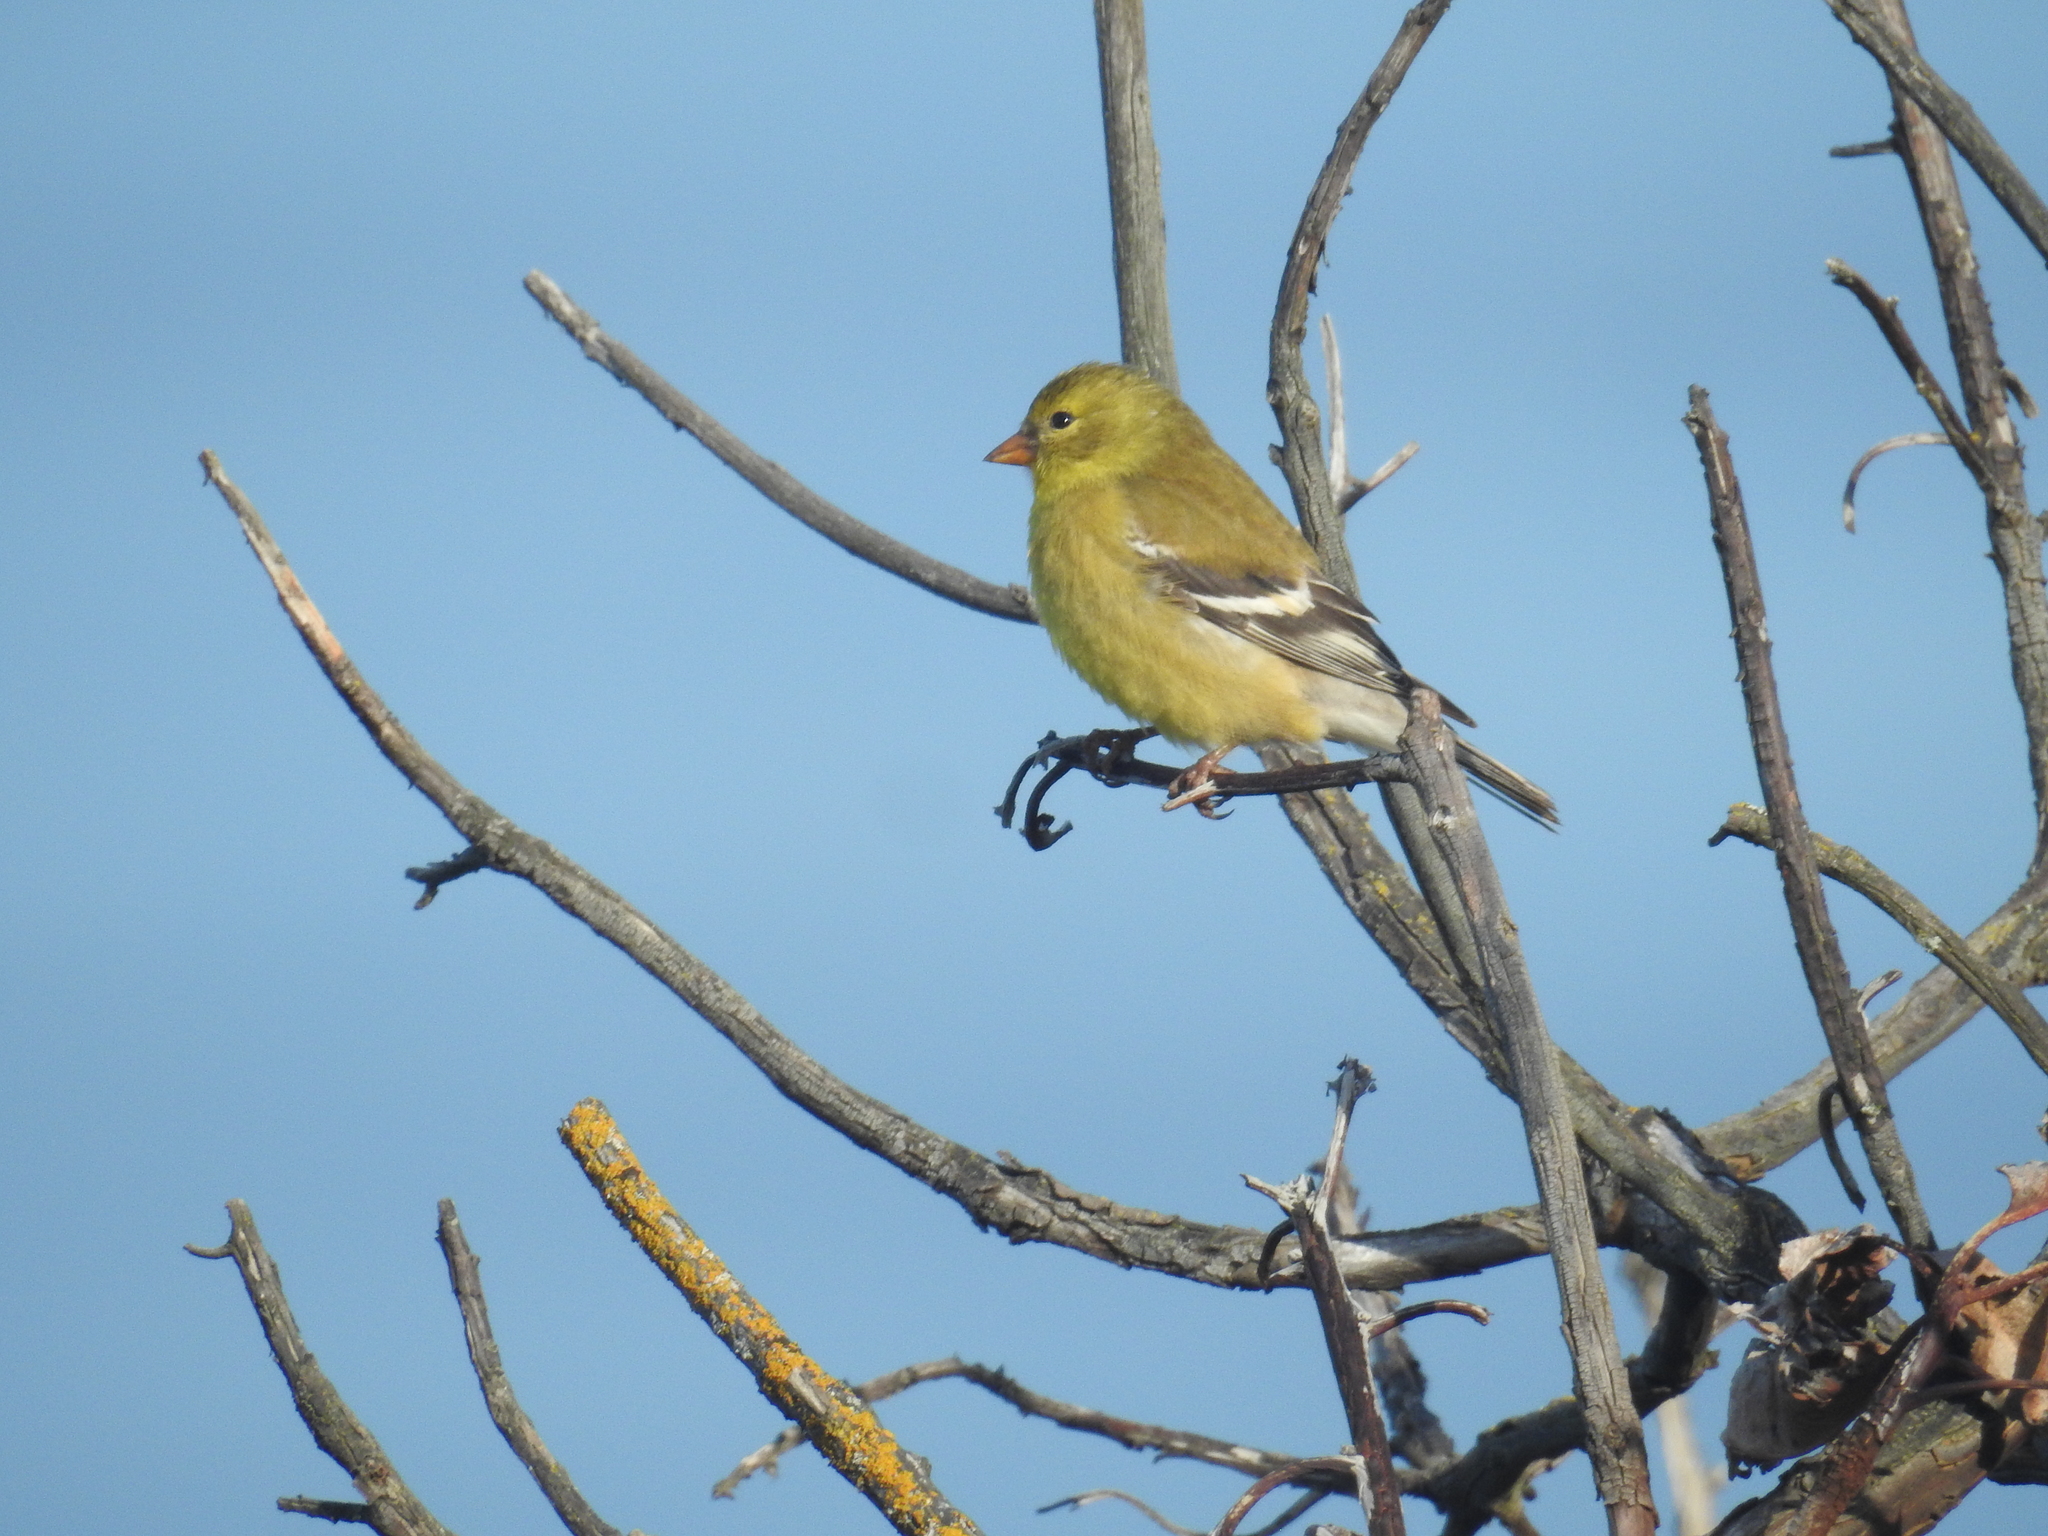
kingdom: Animalia
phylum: Chordata
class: Aves
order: Passeriformes
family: Fringillidae
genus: Spinus
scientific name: Spinus tristis
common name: American goldfinch
